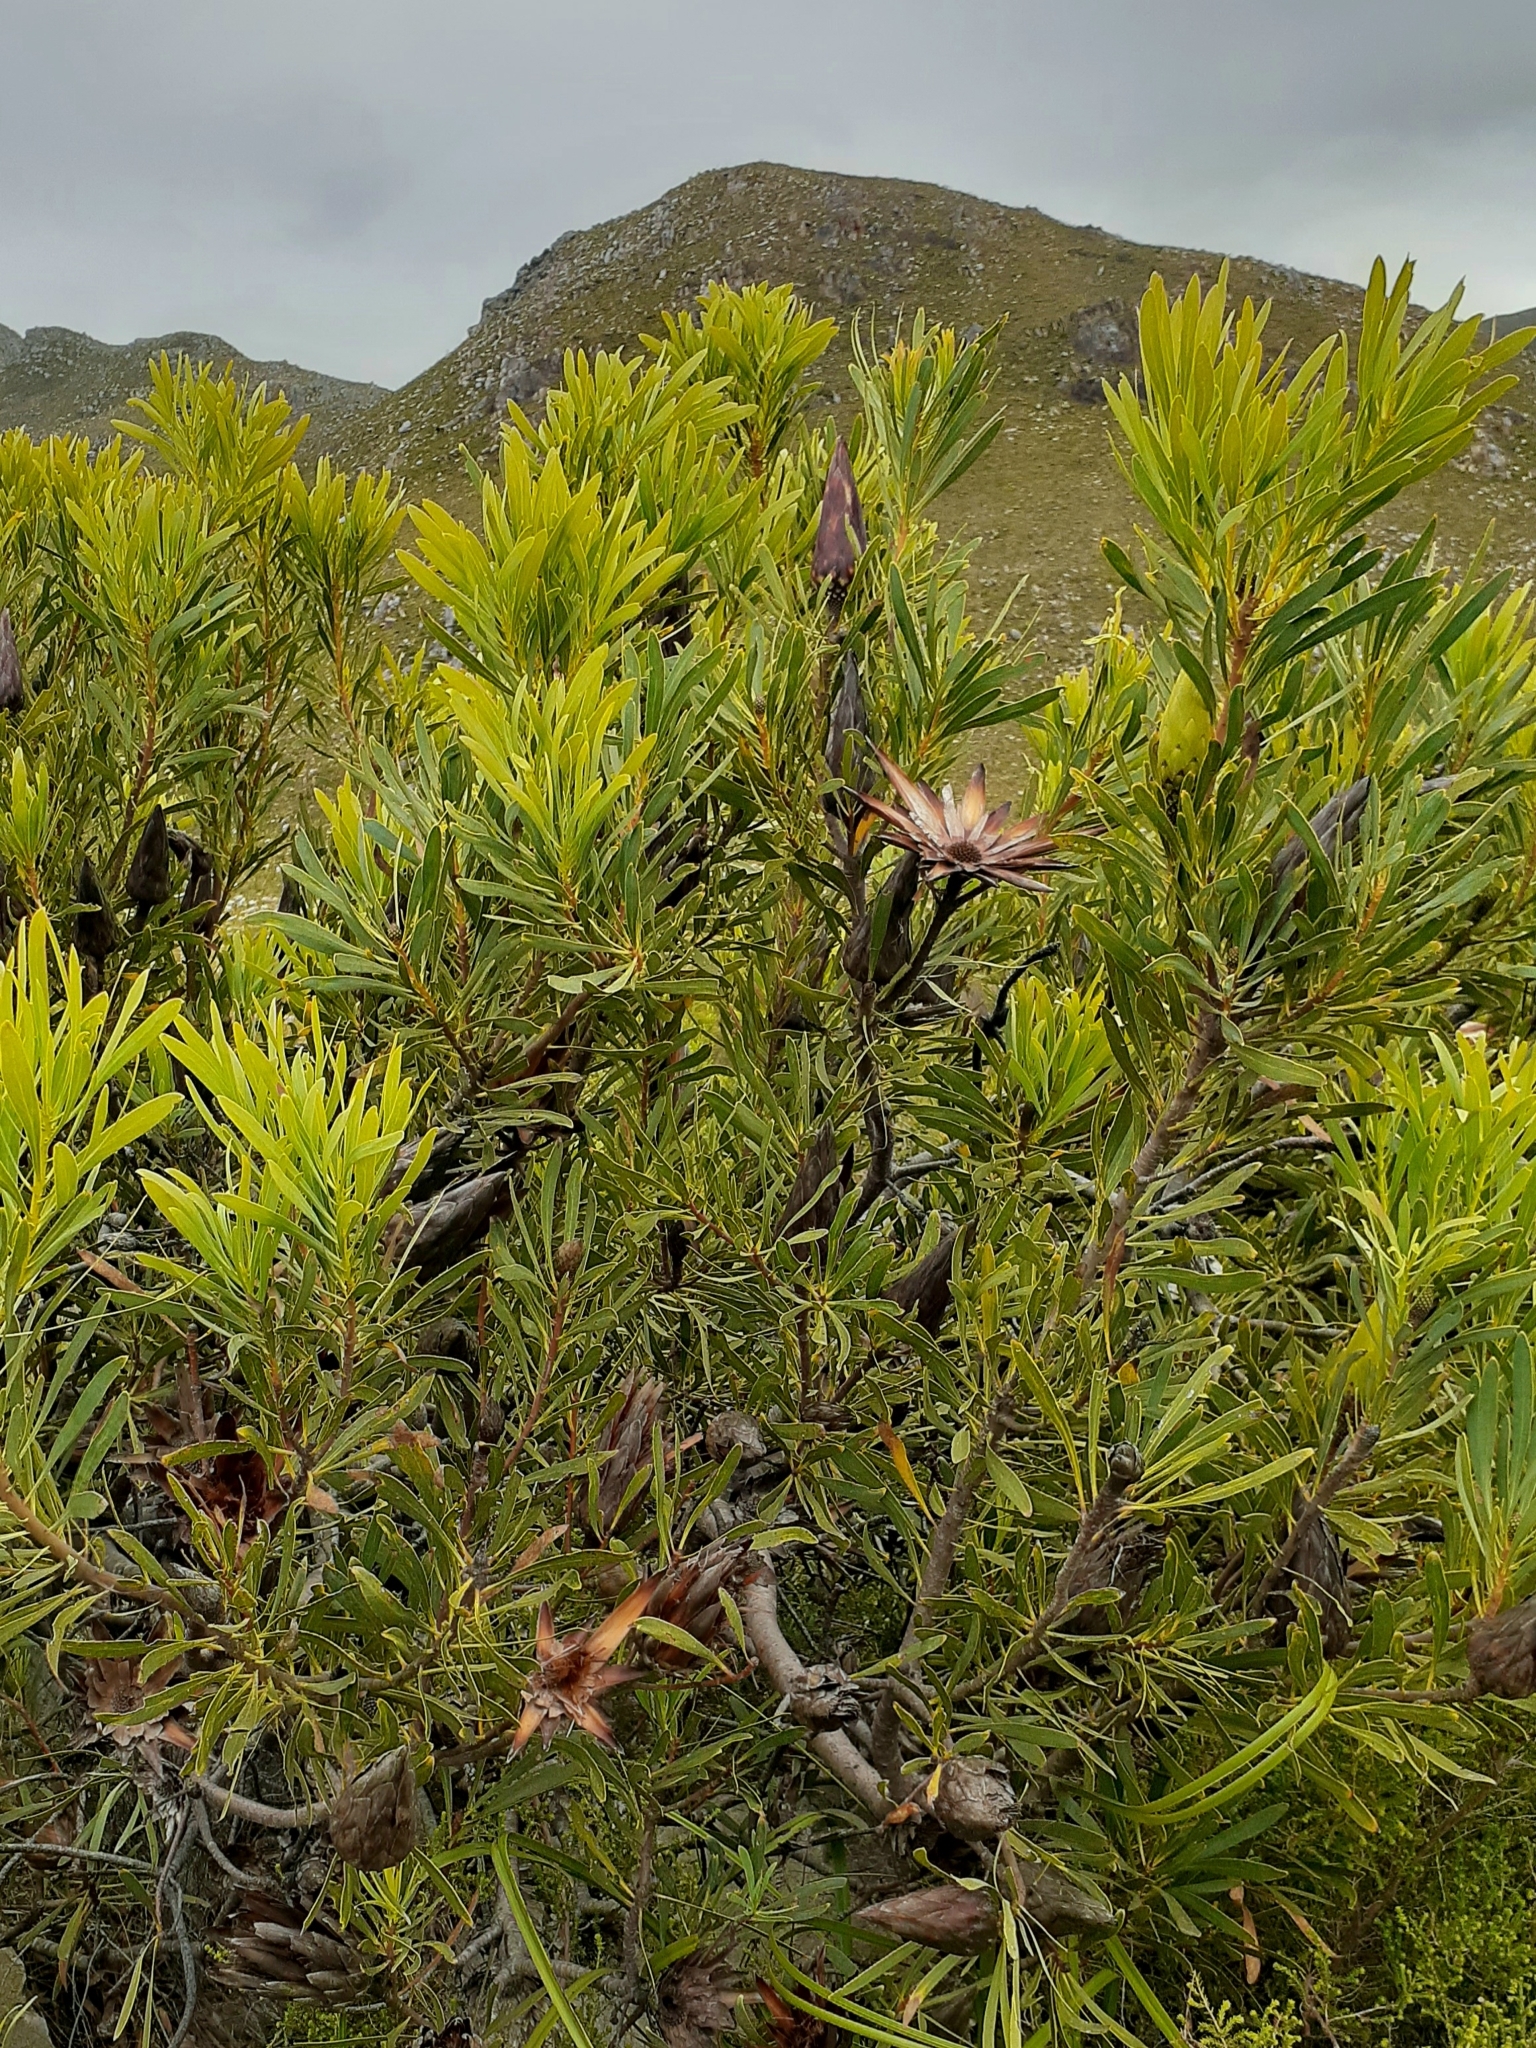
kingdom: Plantae
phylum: Tracheophyta
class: Magnoliopsida
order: Proteales
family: Proteaceae
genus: Protea
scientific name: Protea repens
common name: Sugarbush
